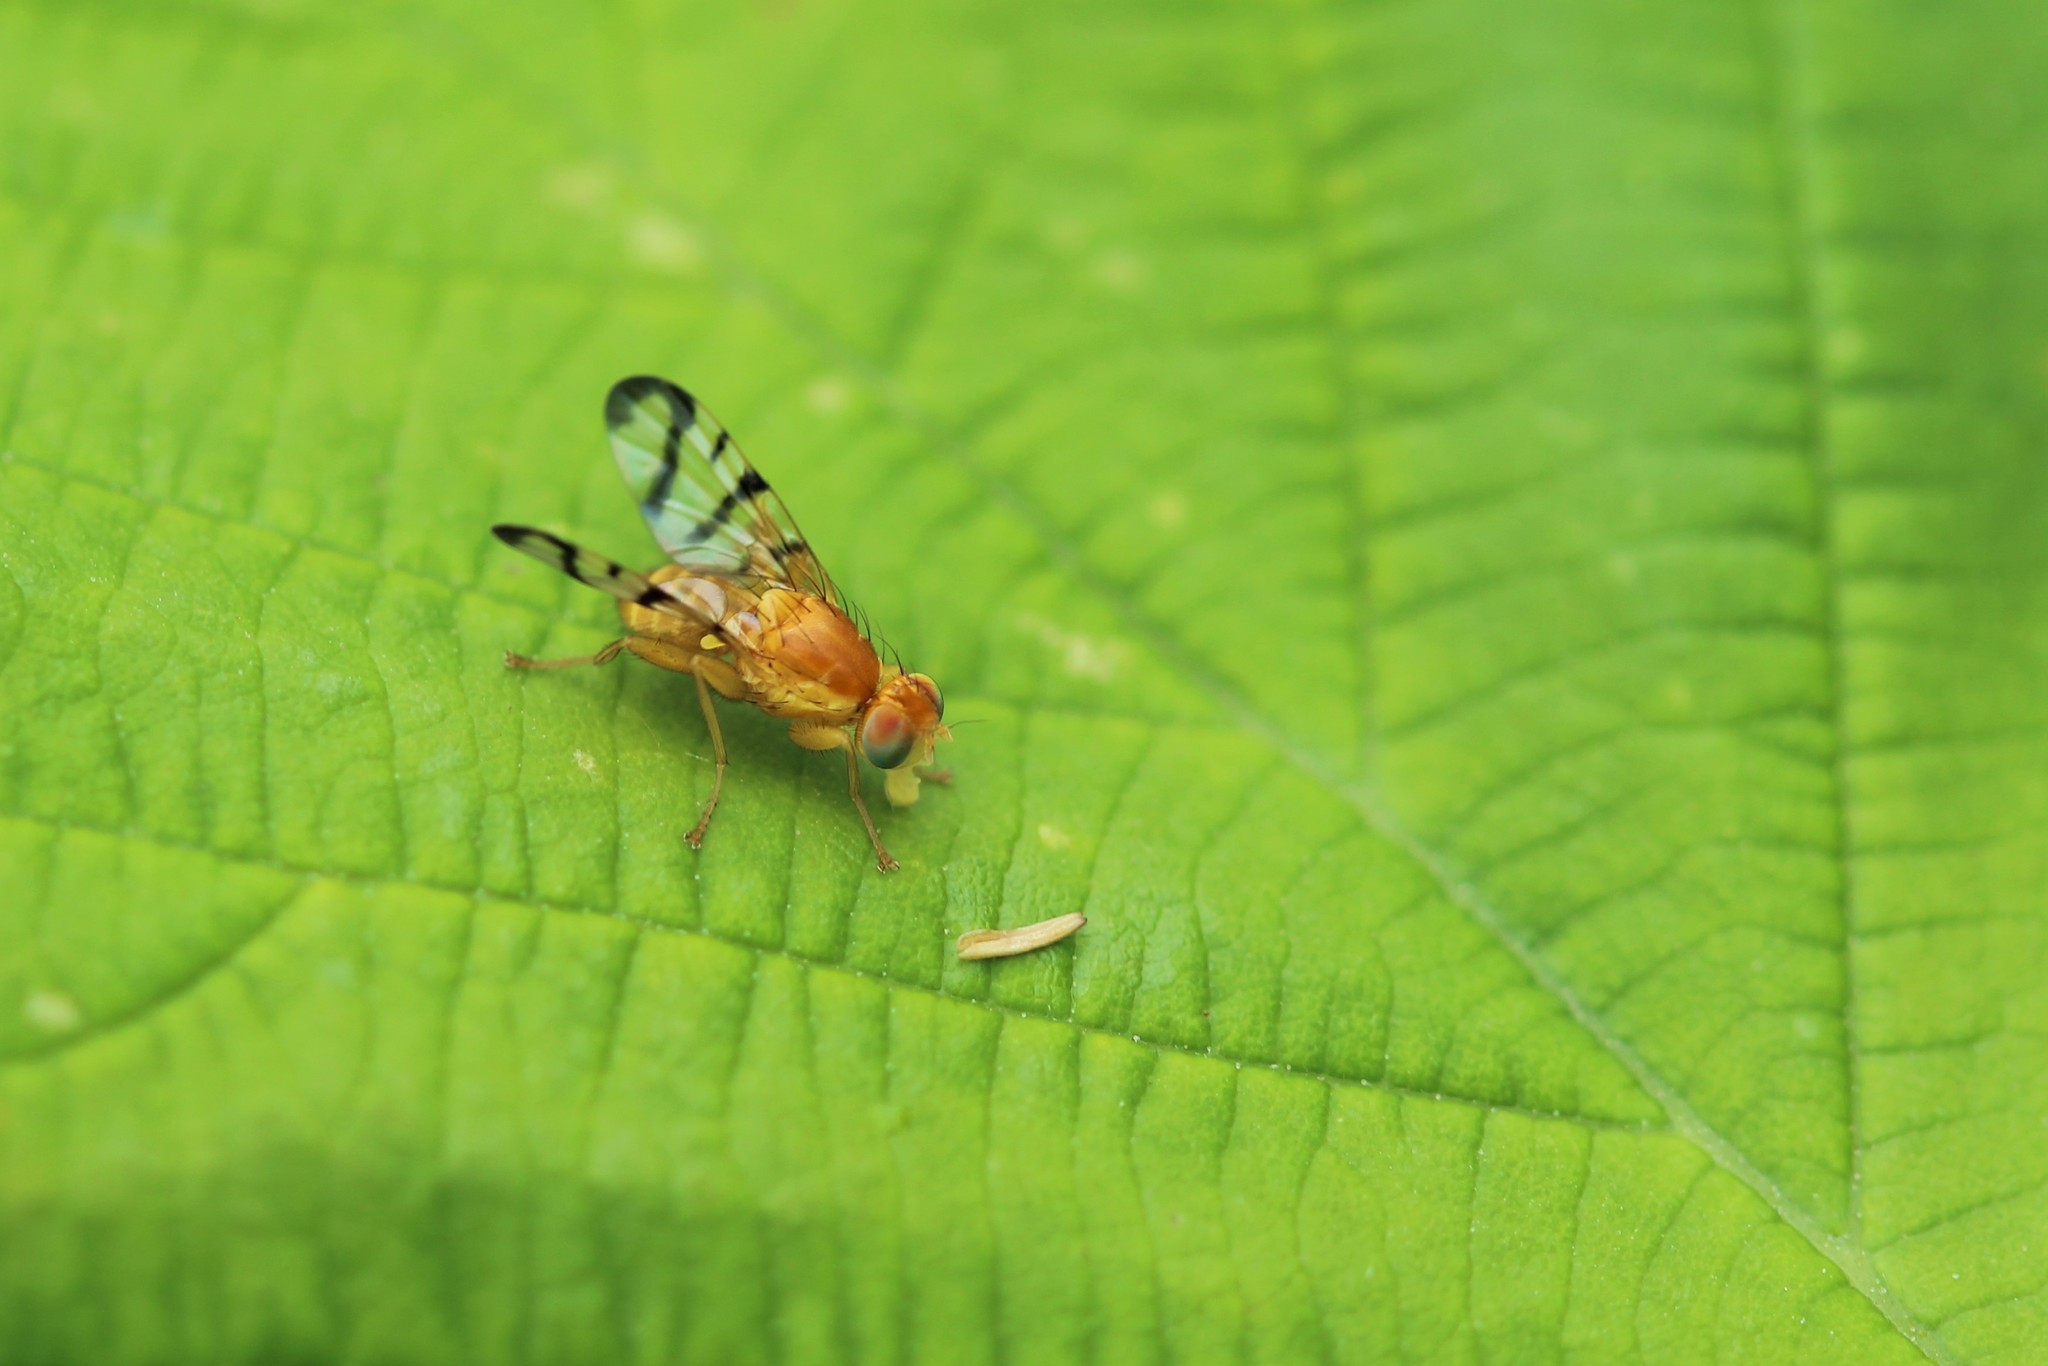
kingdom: Animalia
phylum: Arthropoda
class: Insecta
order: Diptera
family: Tephritidae
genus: Rhagoletis
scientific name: Rhagoletis basiola
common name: Rose hip fly
